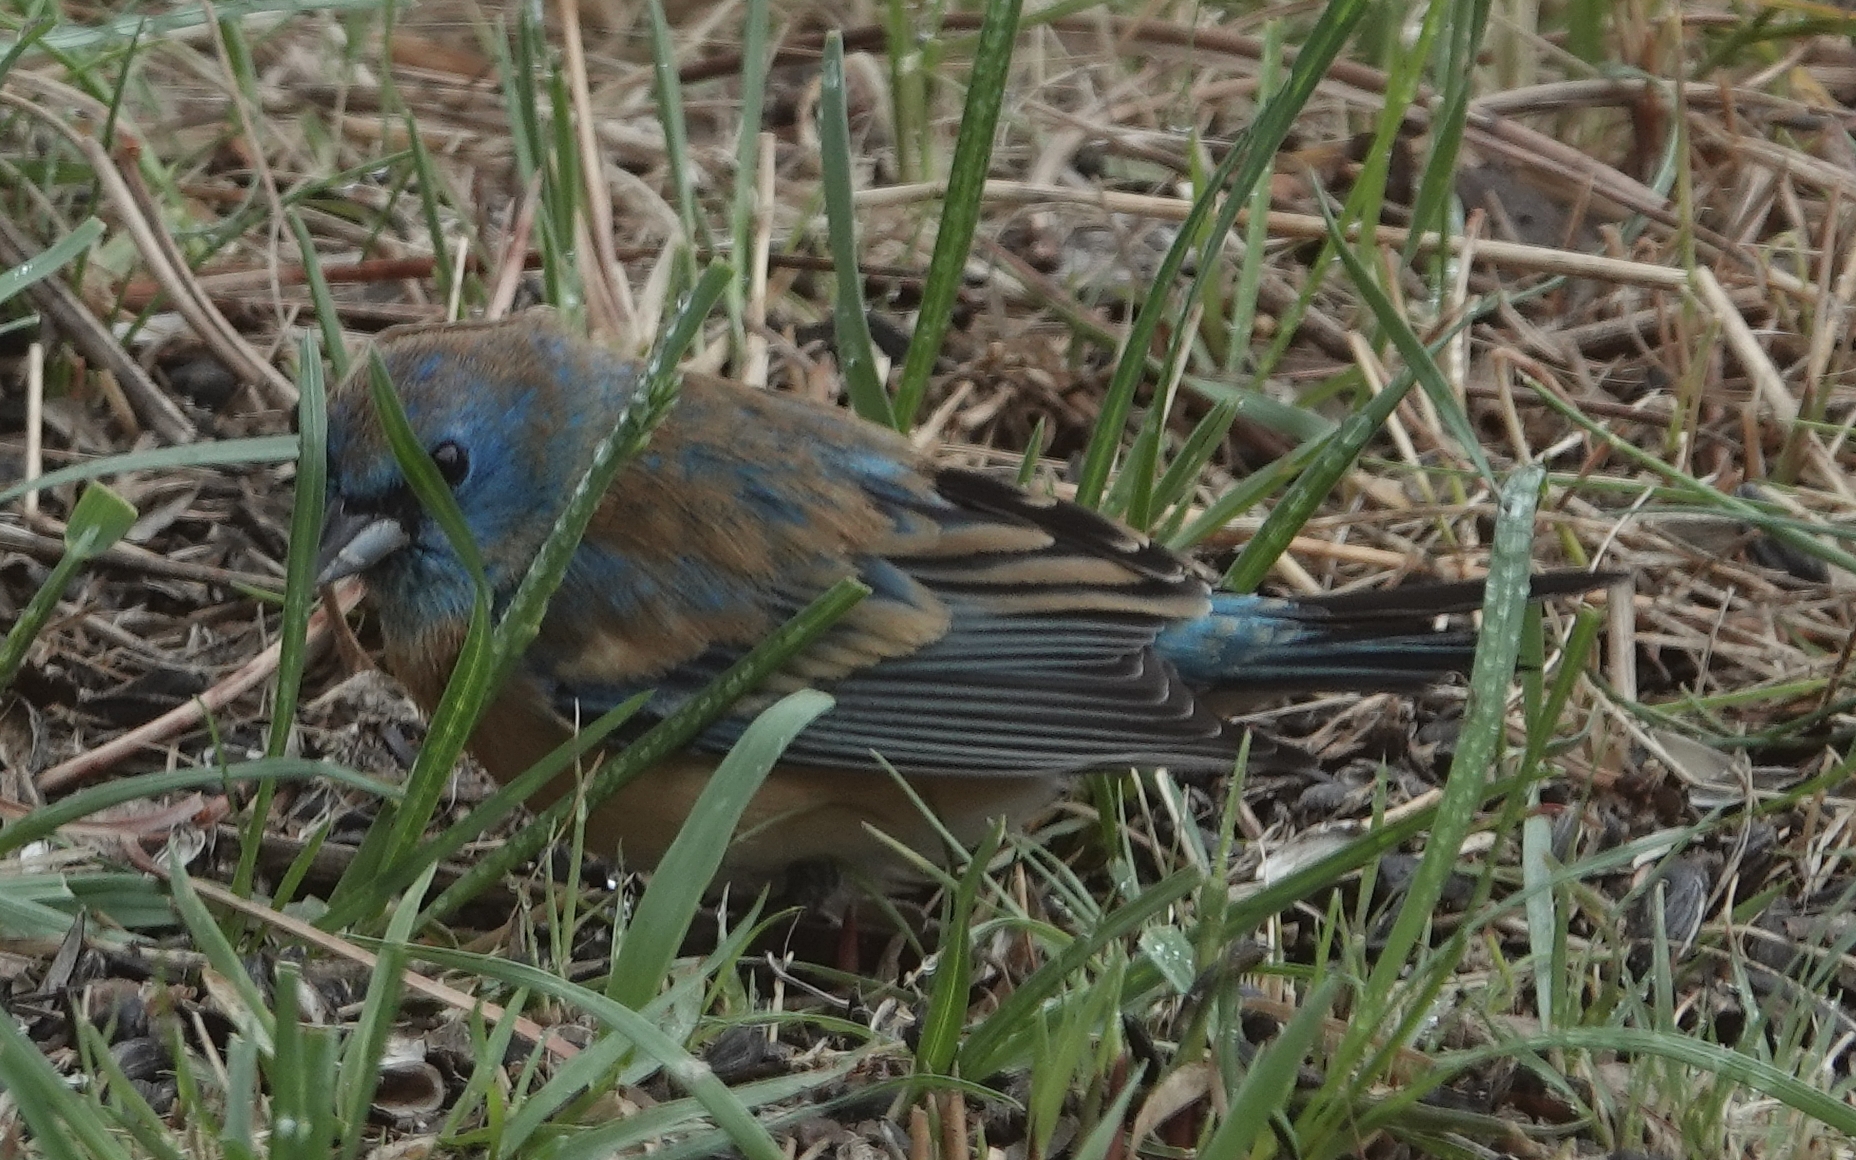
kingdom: Animalia
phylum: Chordata
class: Aves
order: Passeriformes
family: Cardinalidae
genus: Passerina
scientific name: Passerina amoena
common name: Lazuli bunting
